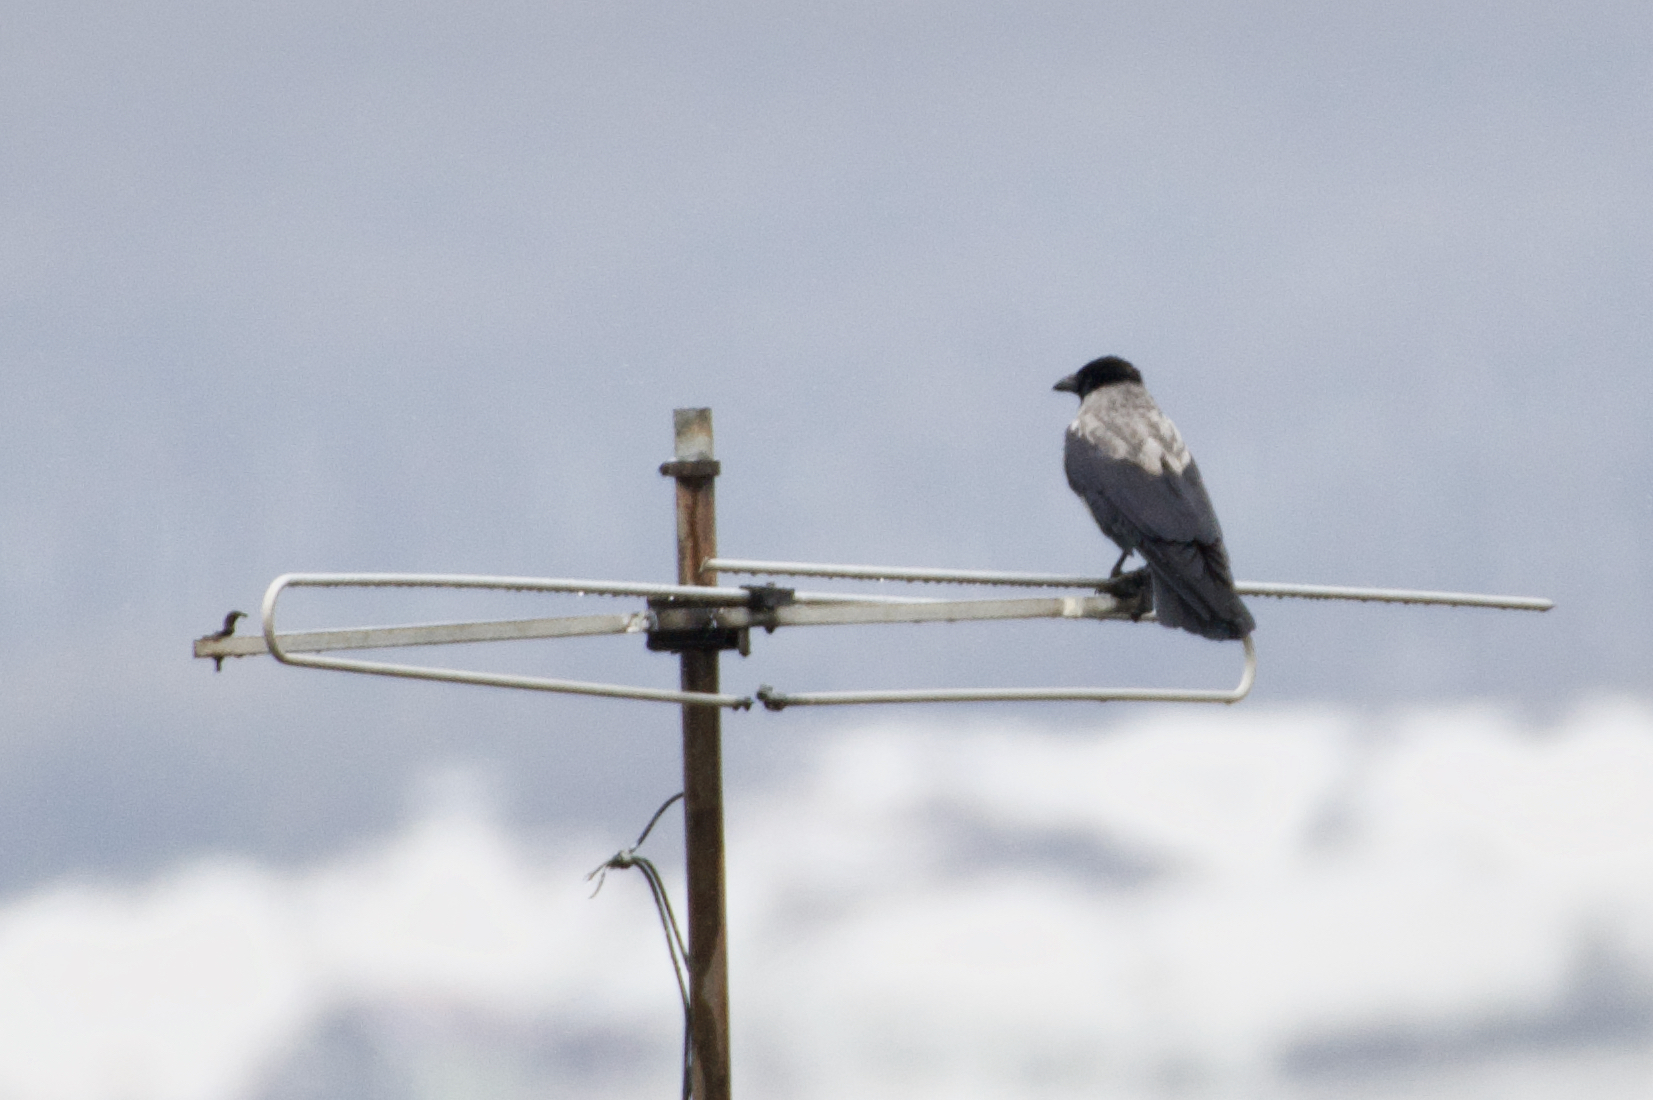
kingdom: Animalia
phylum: Chordata
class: Aves
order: Passeriformes
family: Corvidae
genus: Corvus
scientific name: Corvus cornix
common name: Hooded crow
